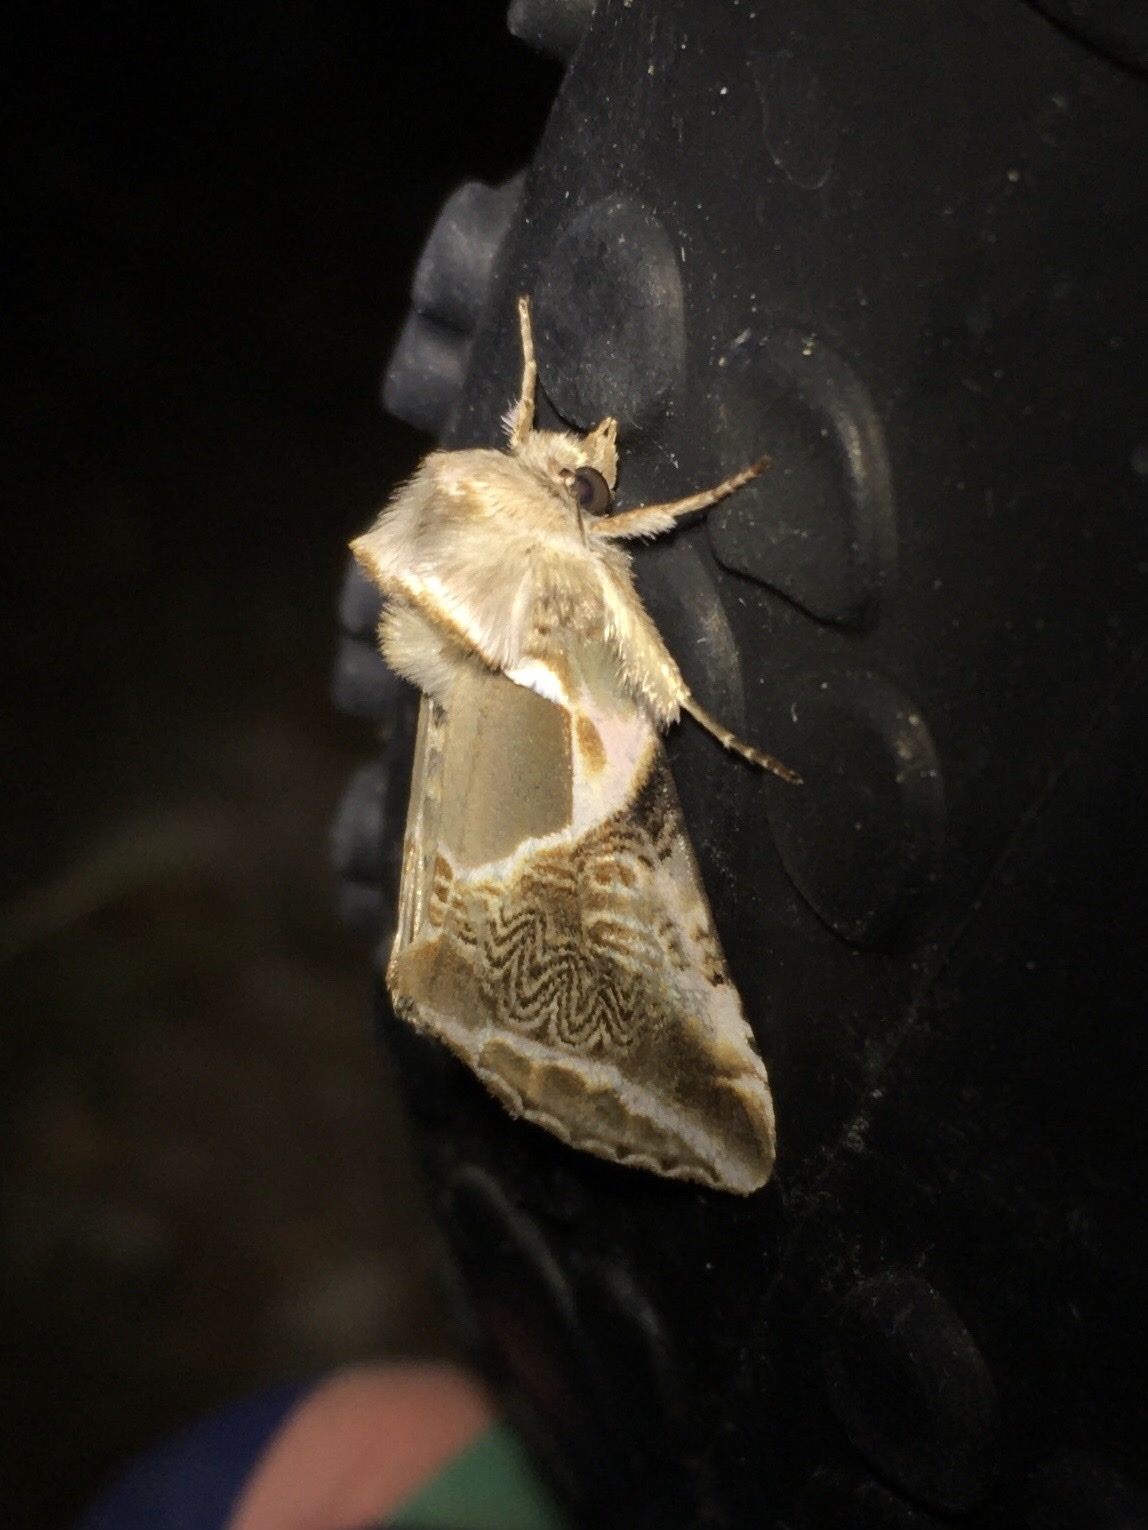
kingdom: Animalia
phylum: Arthropoda
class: Insecta
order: Lepidoptera
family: Drepanidae
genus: Habrosyne
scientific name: Habrosyne scripta
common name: Lettered habrosyne moth
